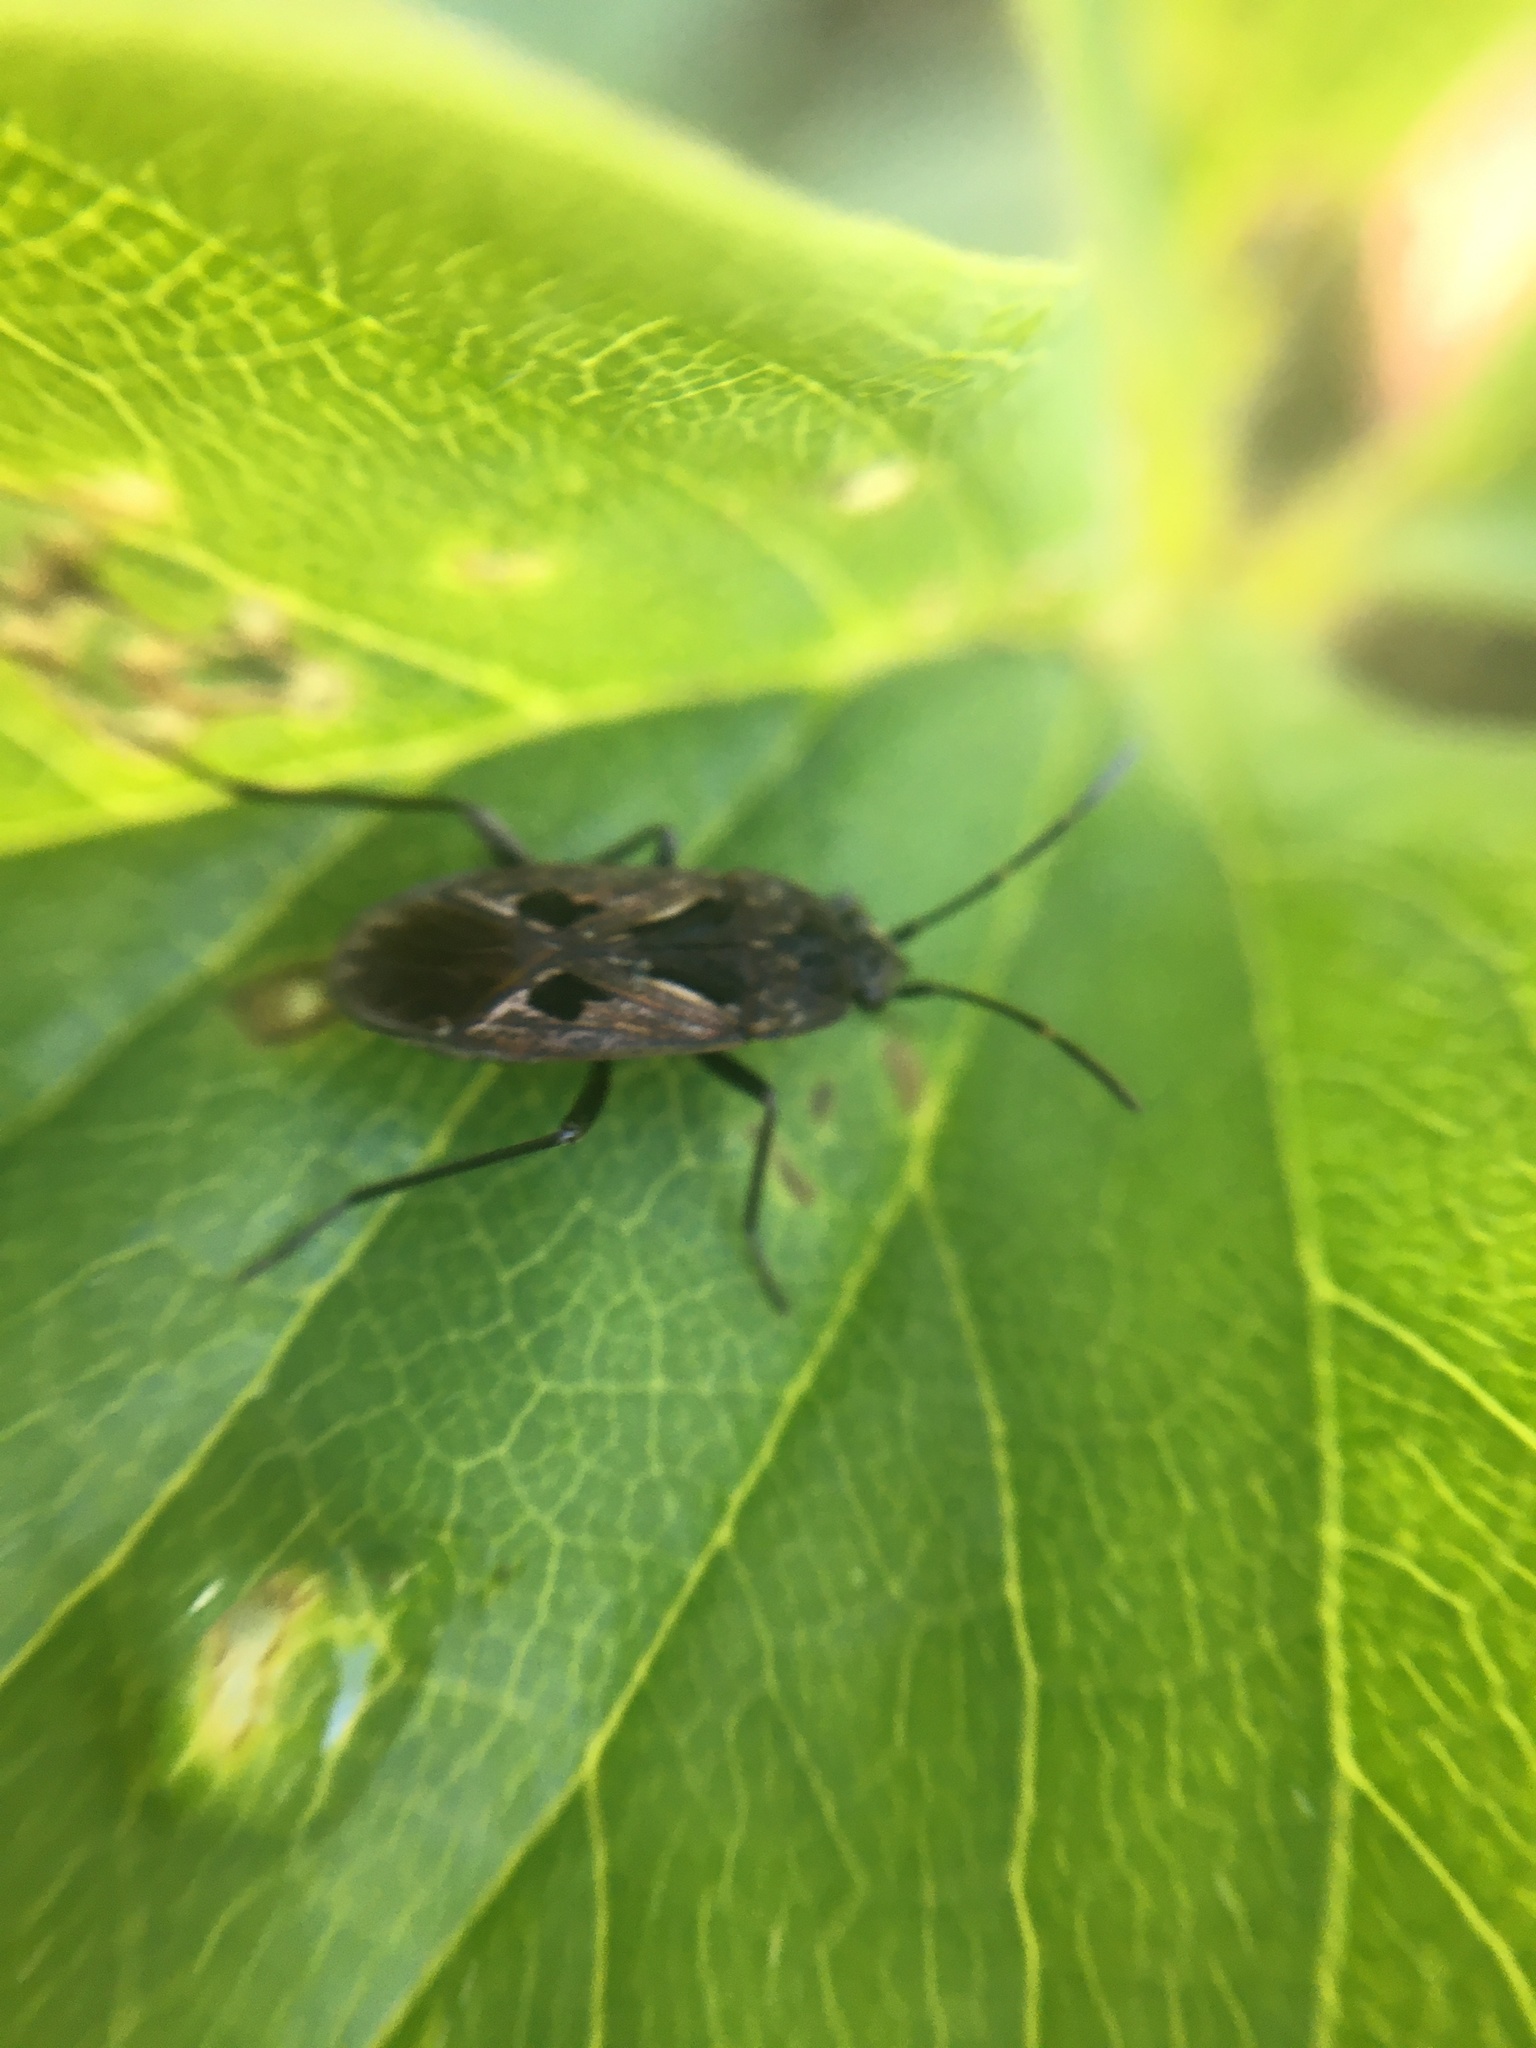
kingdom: Animalia
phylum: Arthropoda
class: Insecta
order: Hemiptera
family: Rhyparochromidae
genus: Rhyparochromus
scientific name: Rhyparochromus pini
